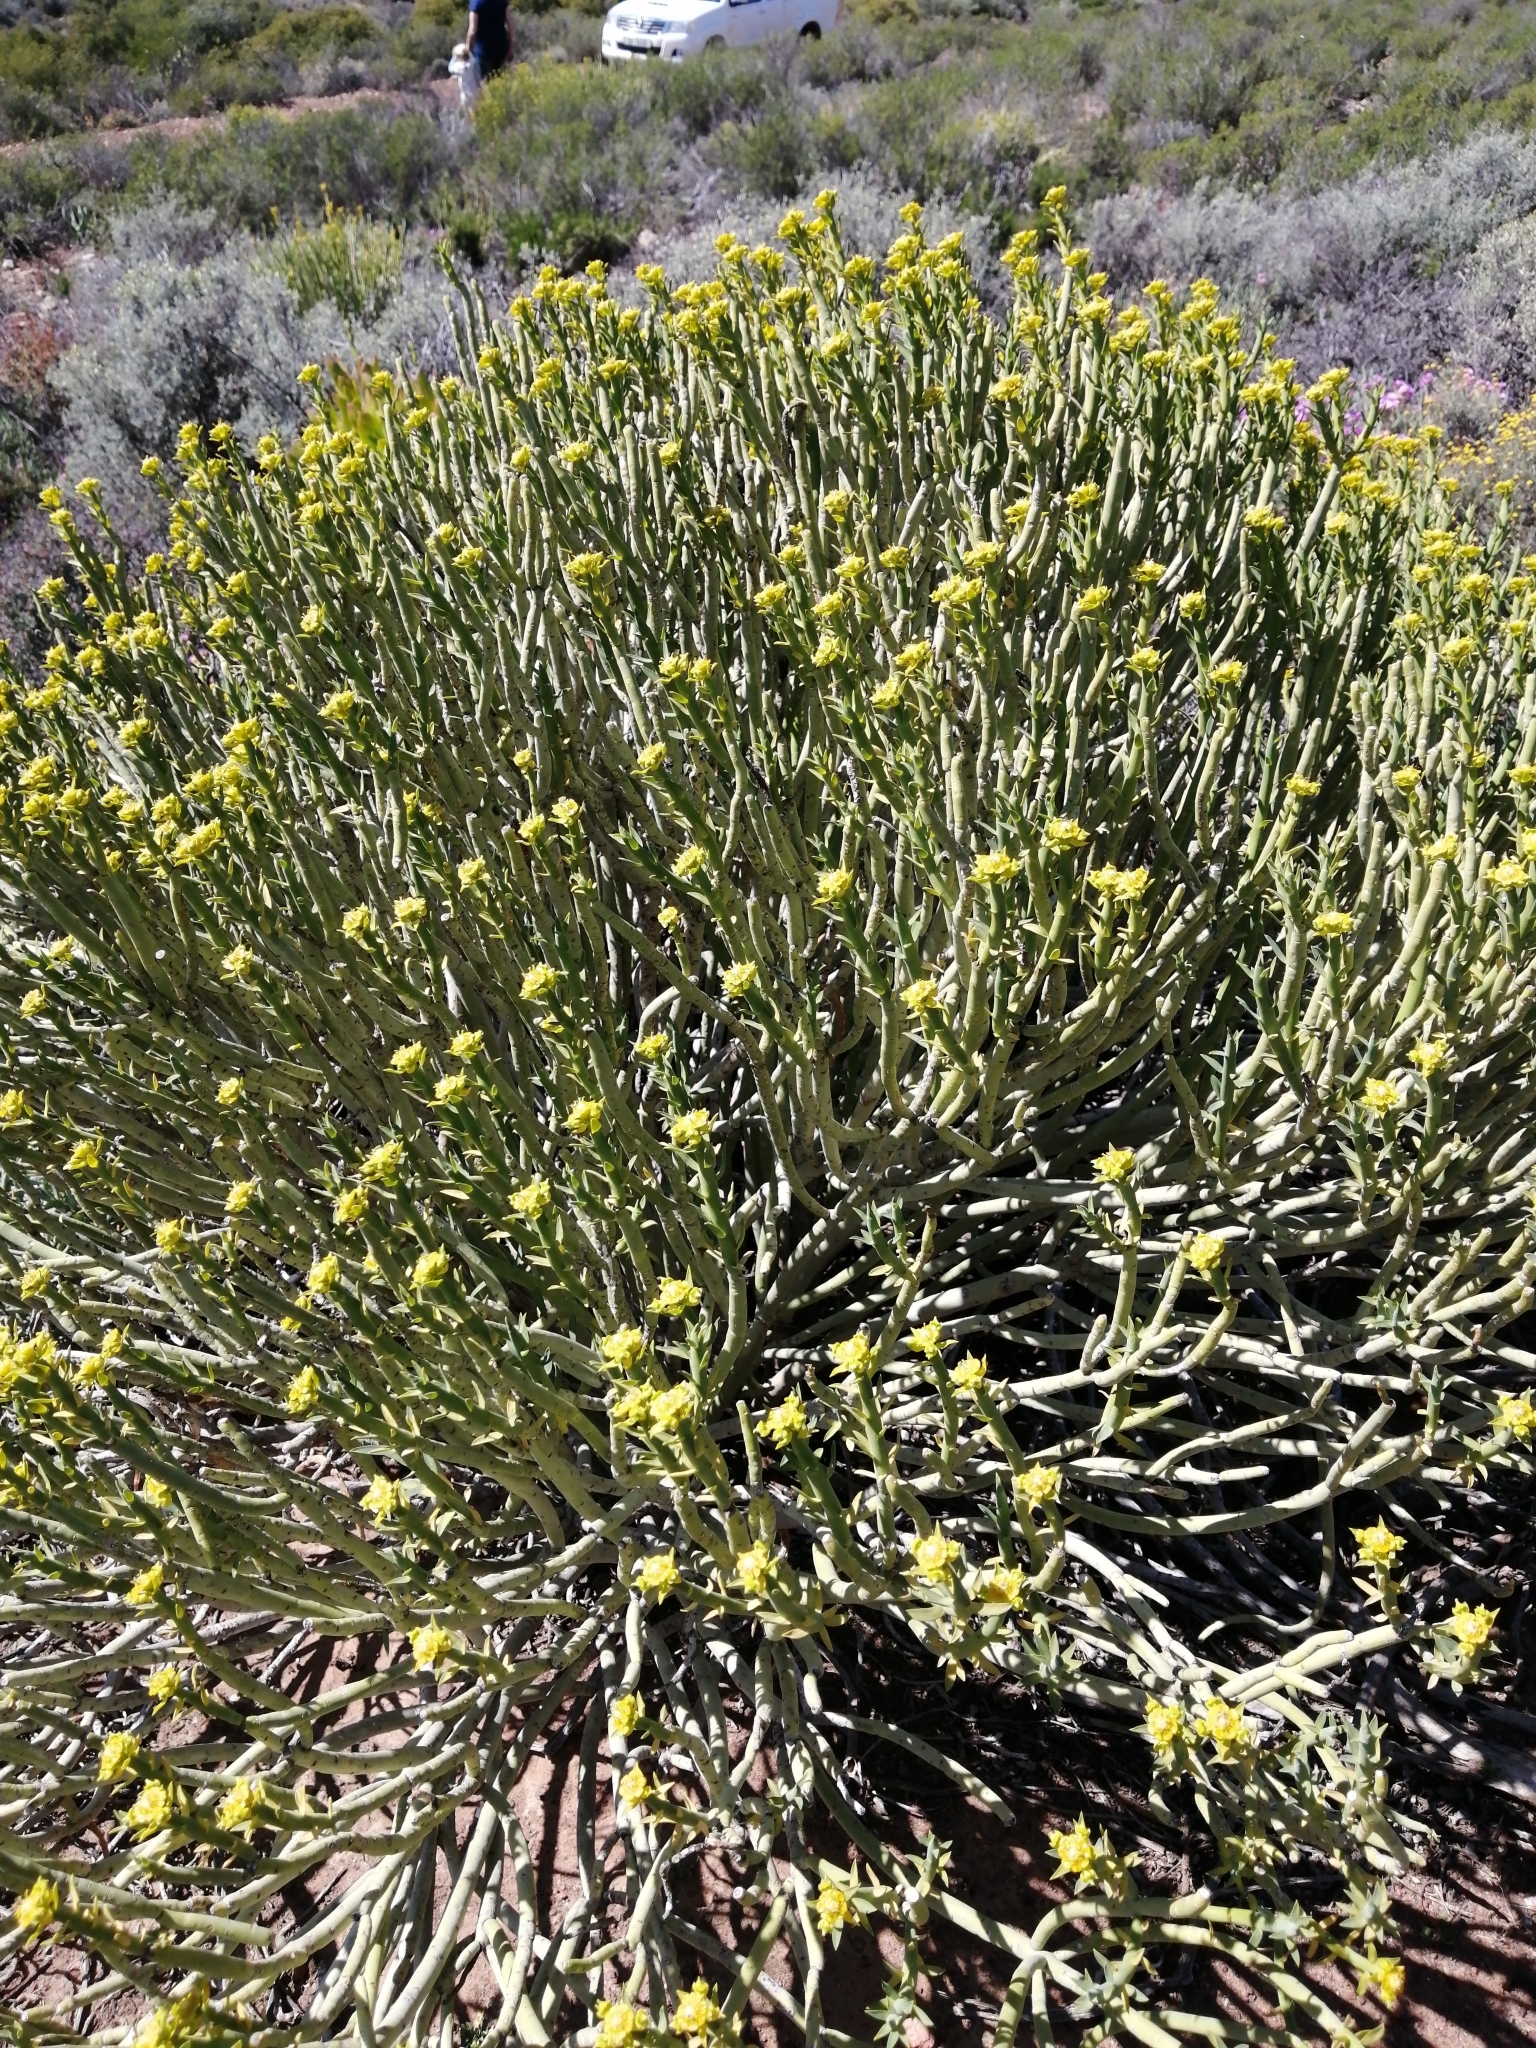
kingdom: Plantae
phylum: Tracheophyta
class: Magnoliopsida
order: Malpighiales
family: Euphorbiaceae
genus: Euphorbia
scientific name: Euphorbia mauritanica
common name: Jackal's-food
